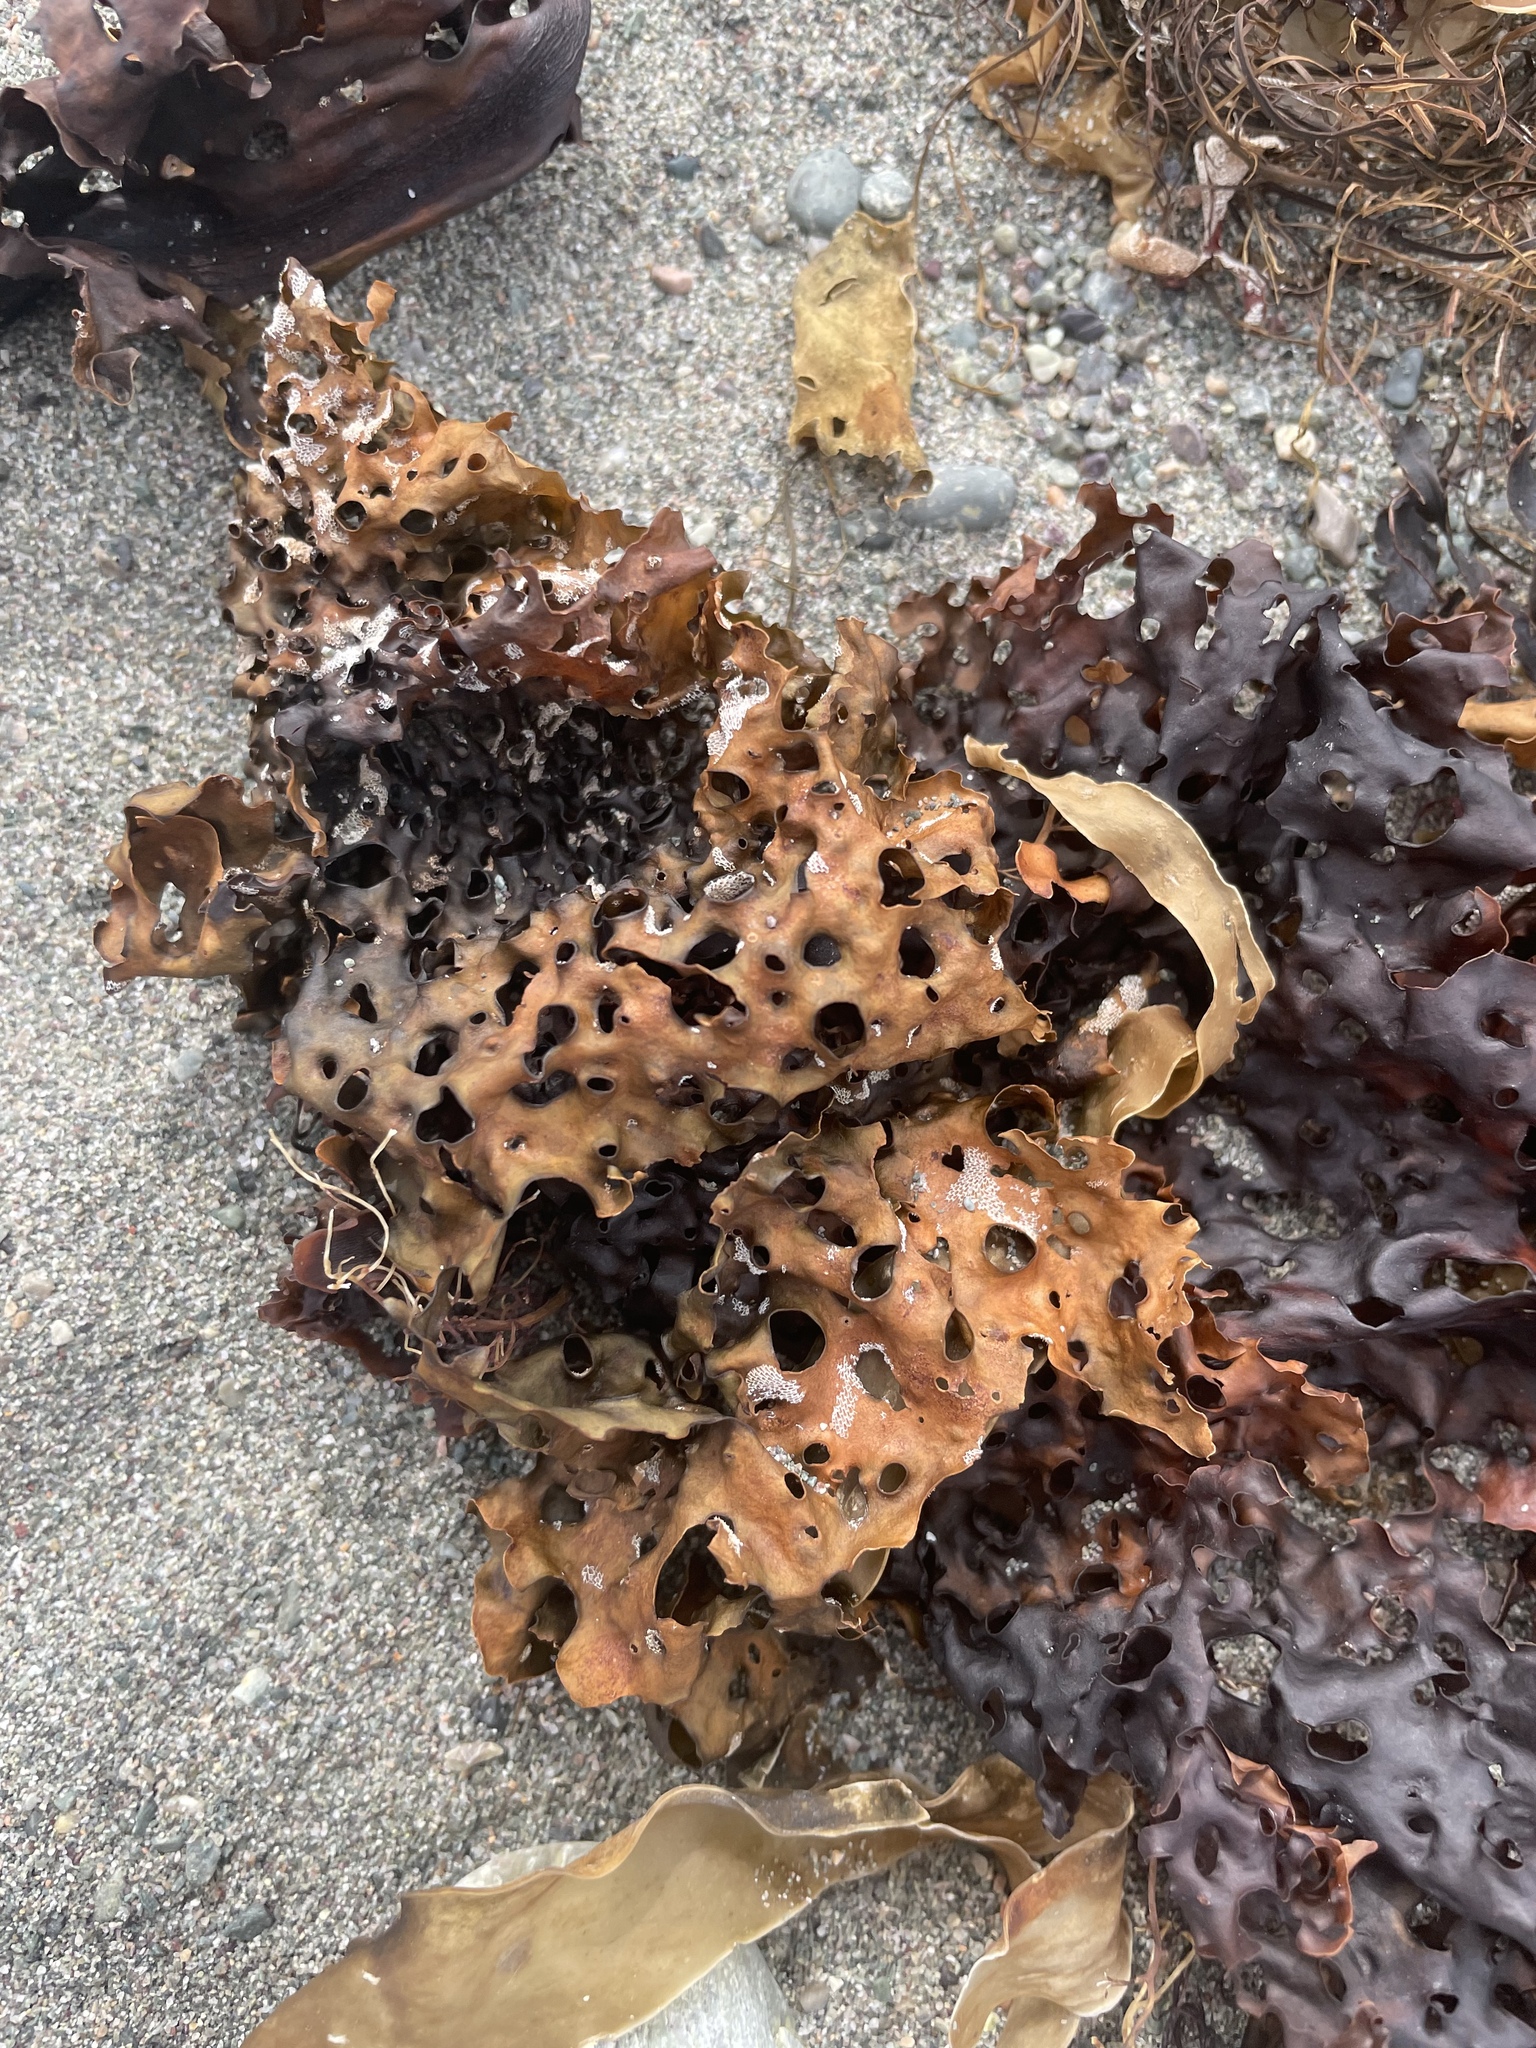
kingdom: Chromista
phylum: Ochrophyta
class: Phaeophyceae
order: Laminariales
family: Costariaceae
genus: Agarum
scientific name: Agarum clathratum
